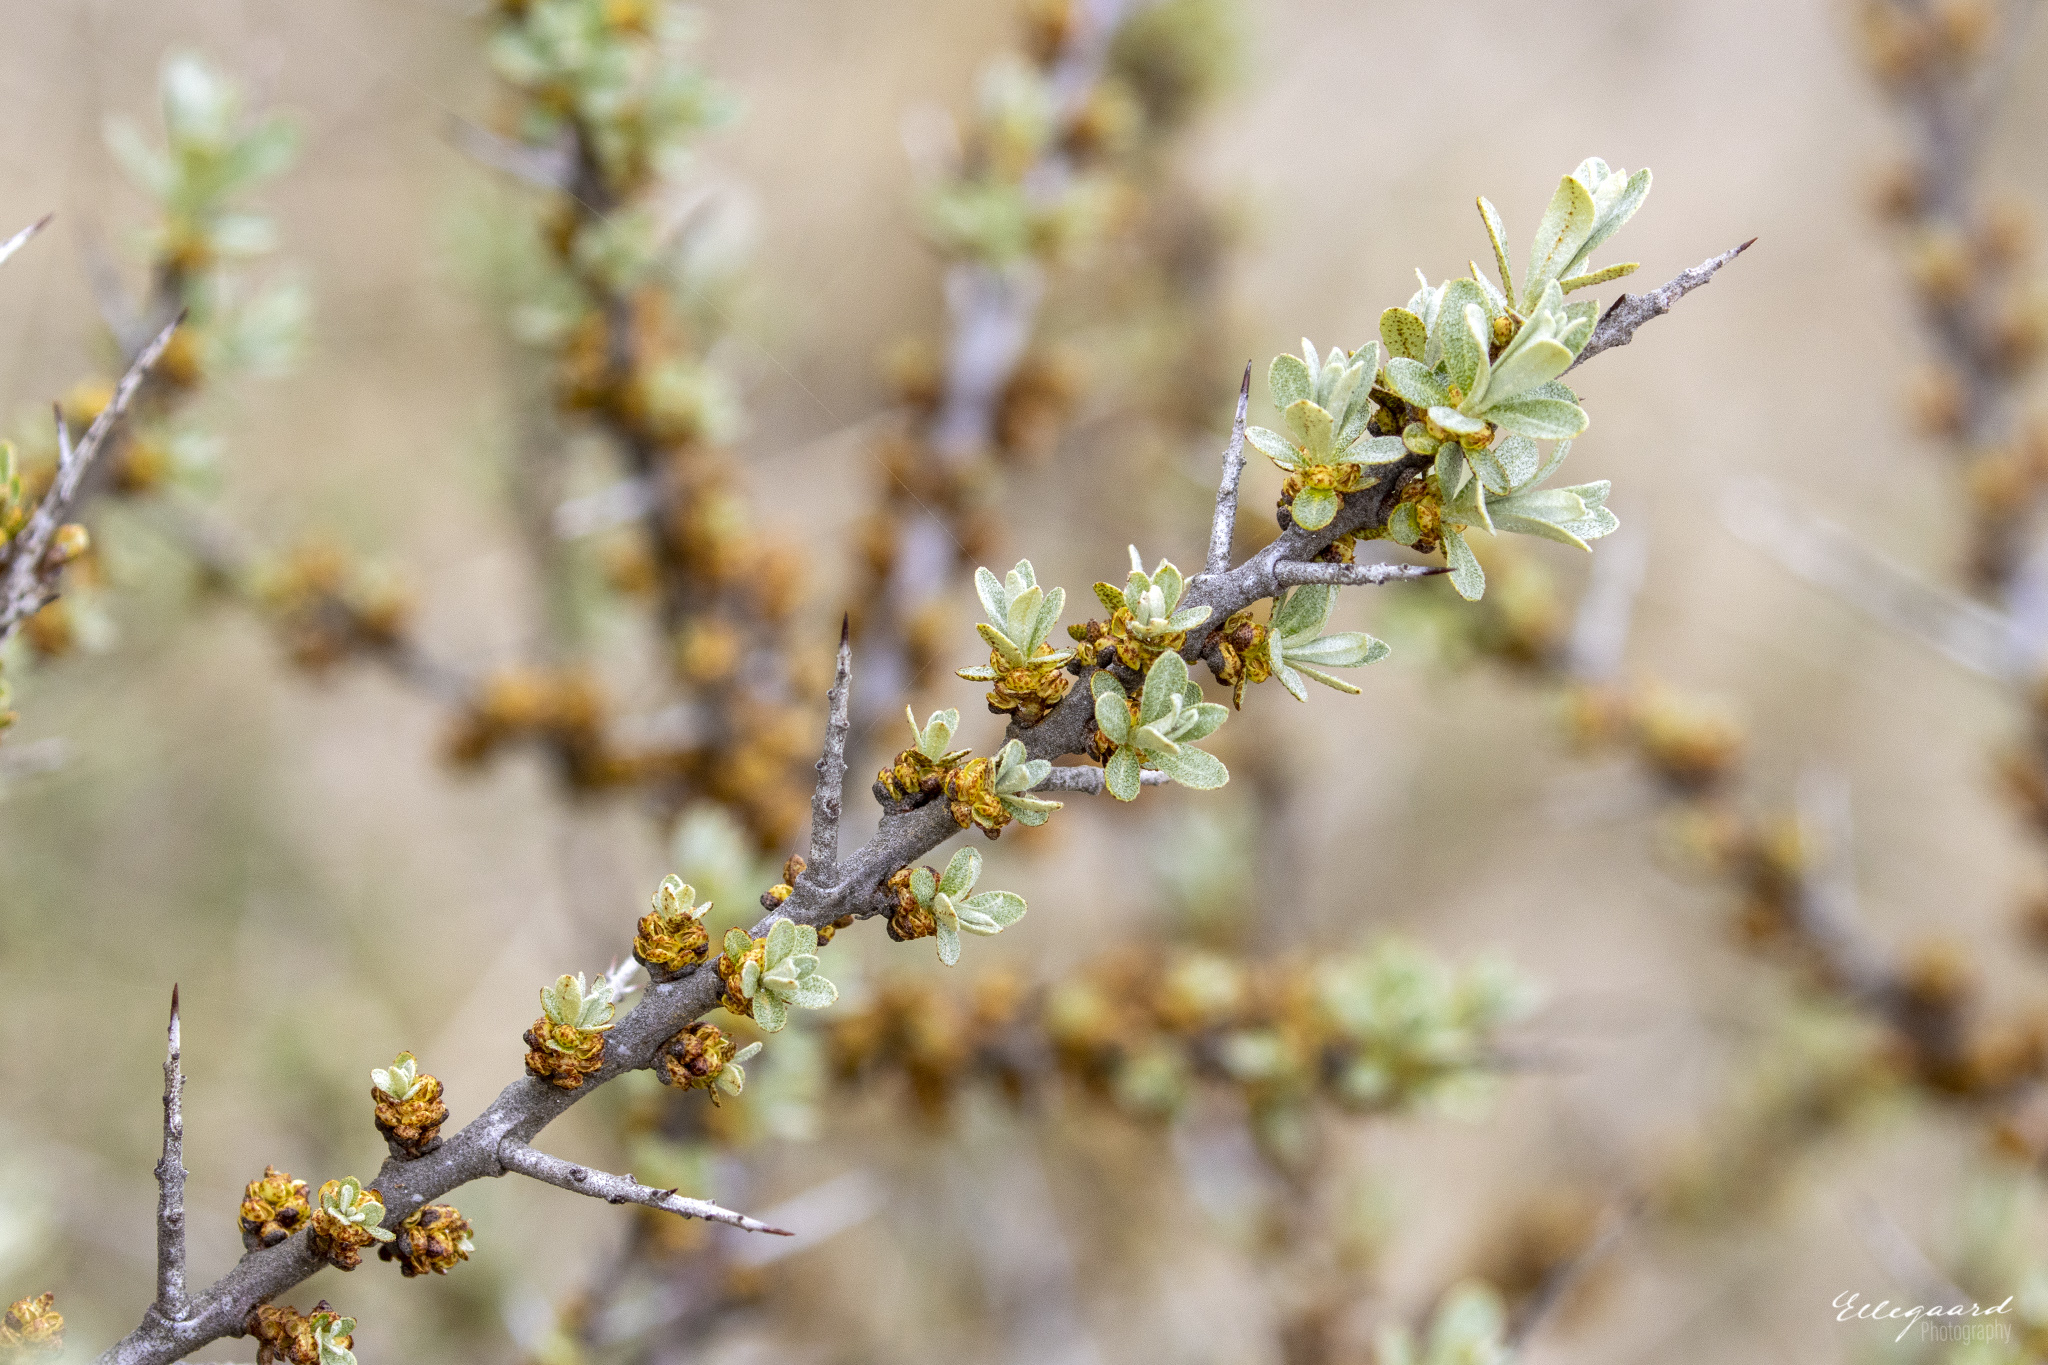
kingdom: Plantae
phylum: Tracheophyta
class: Magnoliopsida
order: Rosales
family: Elaeagnaceae
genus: Hippophae
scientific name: Hippophae rhamnoides
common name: Sea-buckthorn
